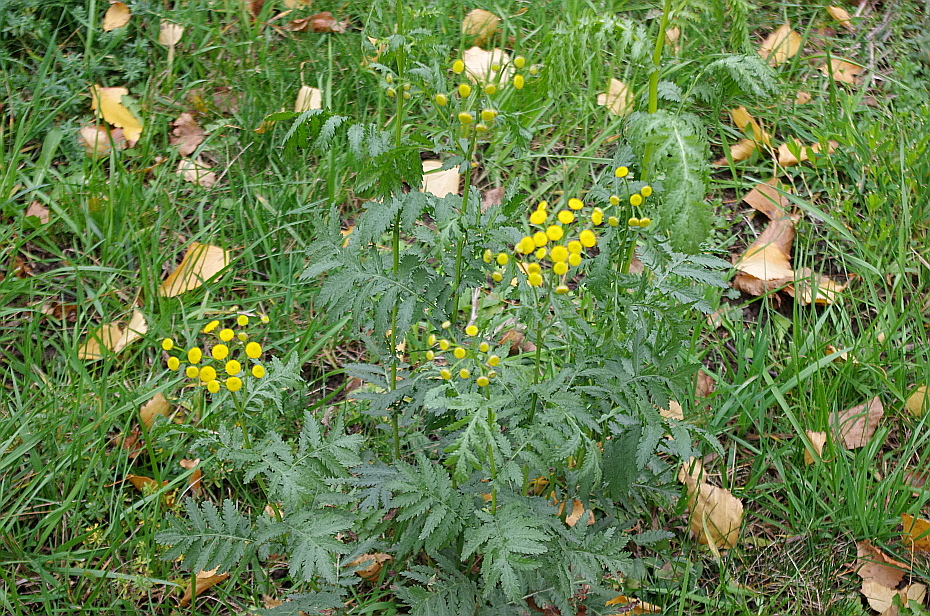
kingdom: Plantae
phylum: Tracheophyta
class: Magnoliopsida
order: Asterales
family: Asteraceae
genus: Tanacetum
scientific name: Tanacetum vulgare
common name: Common tansy
